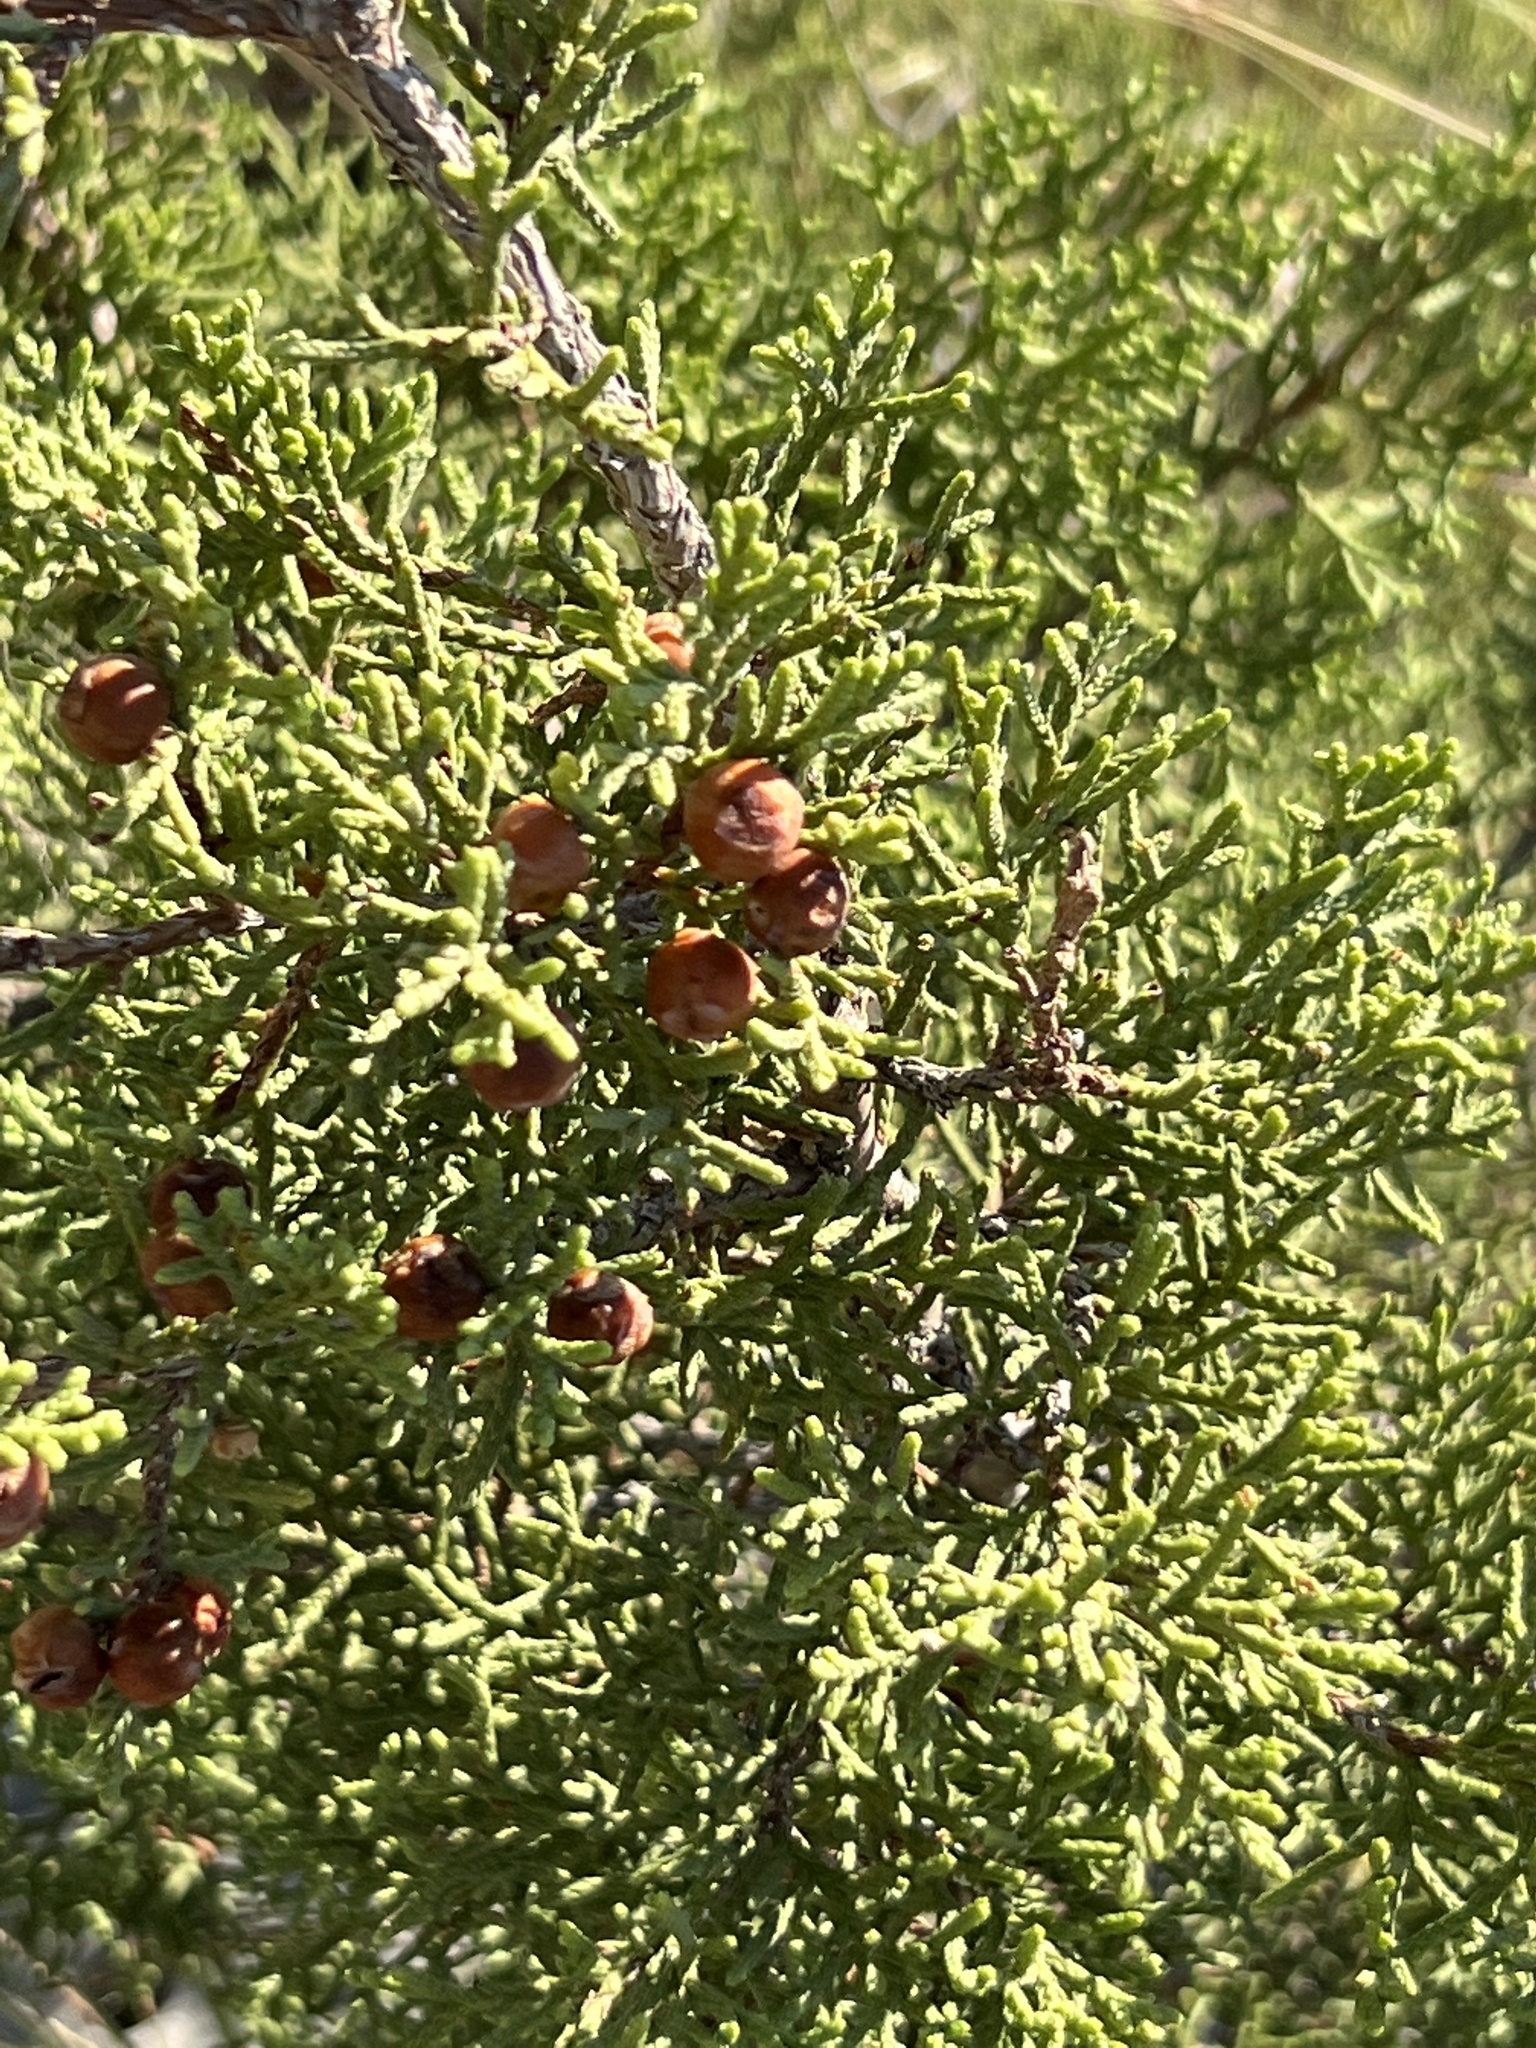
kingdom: Plantae
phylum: Tracheophyta
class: Pinopsida
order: Pinales
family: Cupressaceae
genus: Juniperus
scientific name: Juniperus pinchotii
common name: Pinchot juniper
